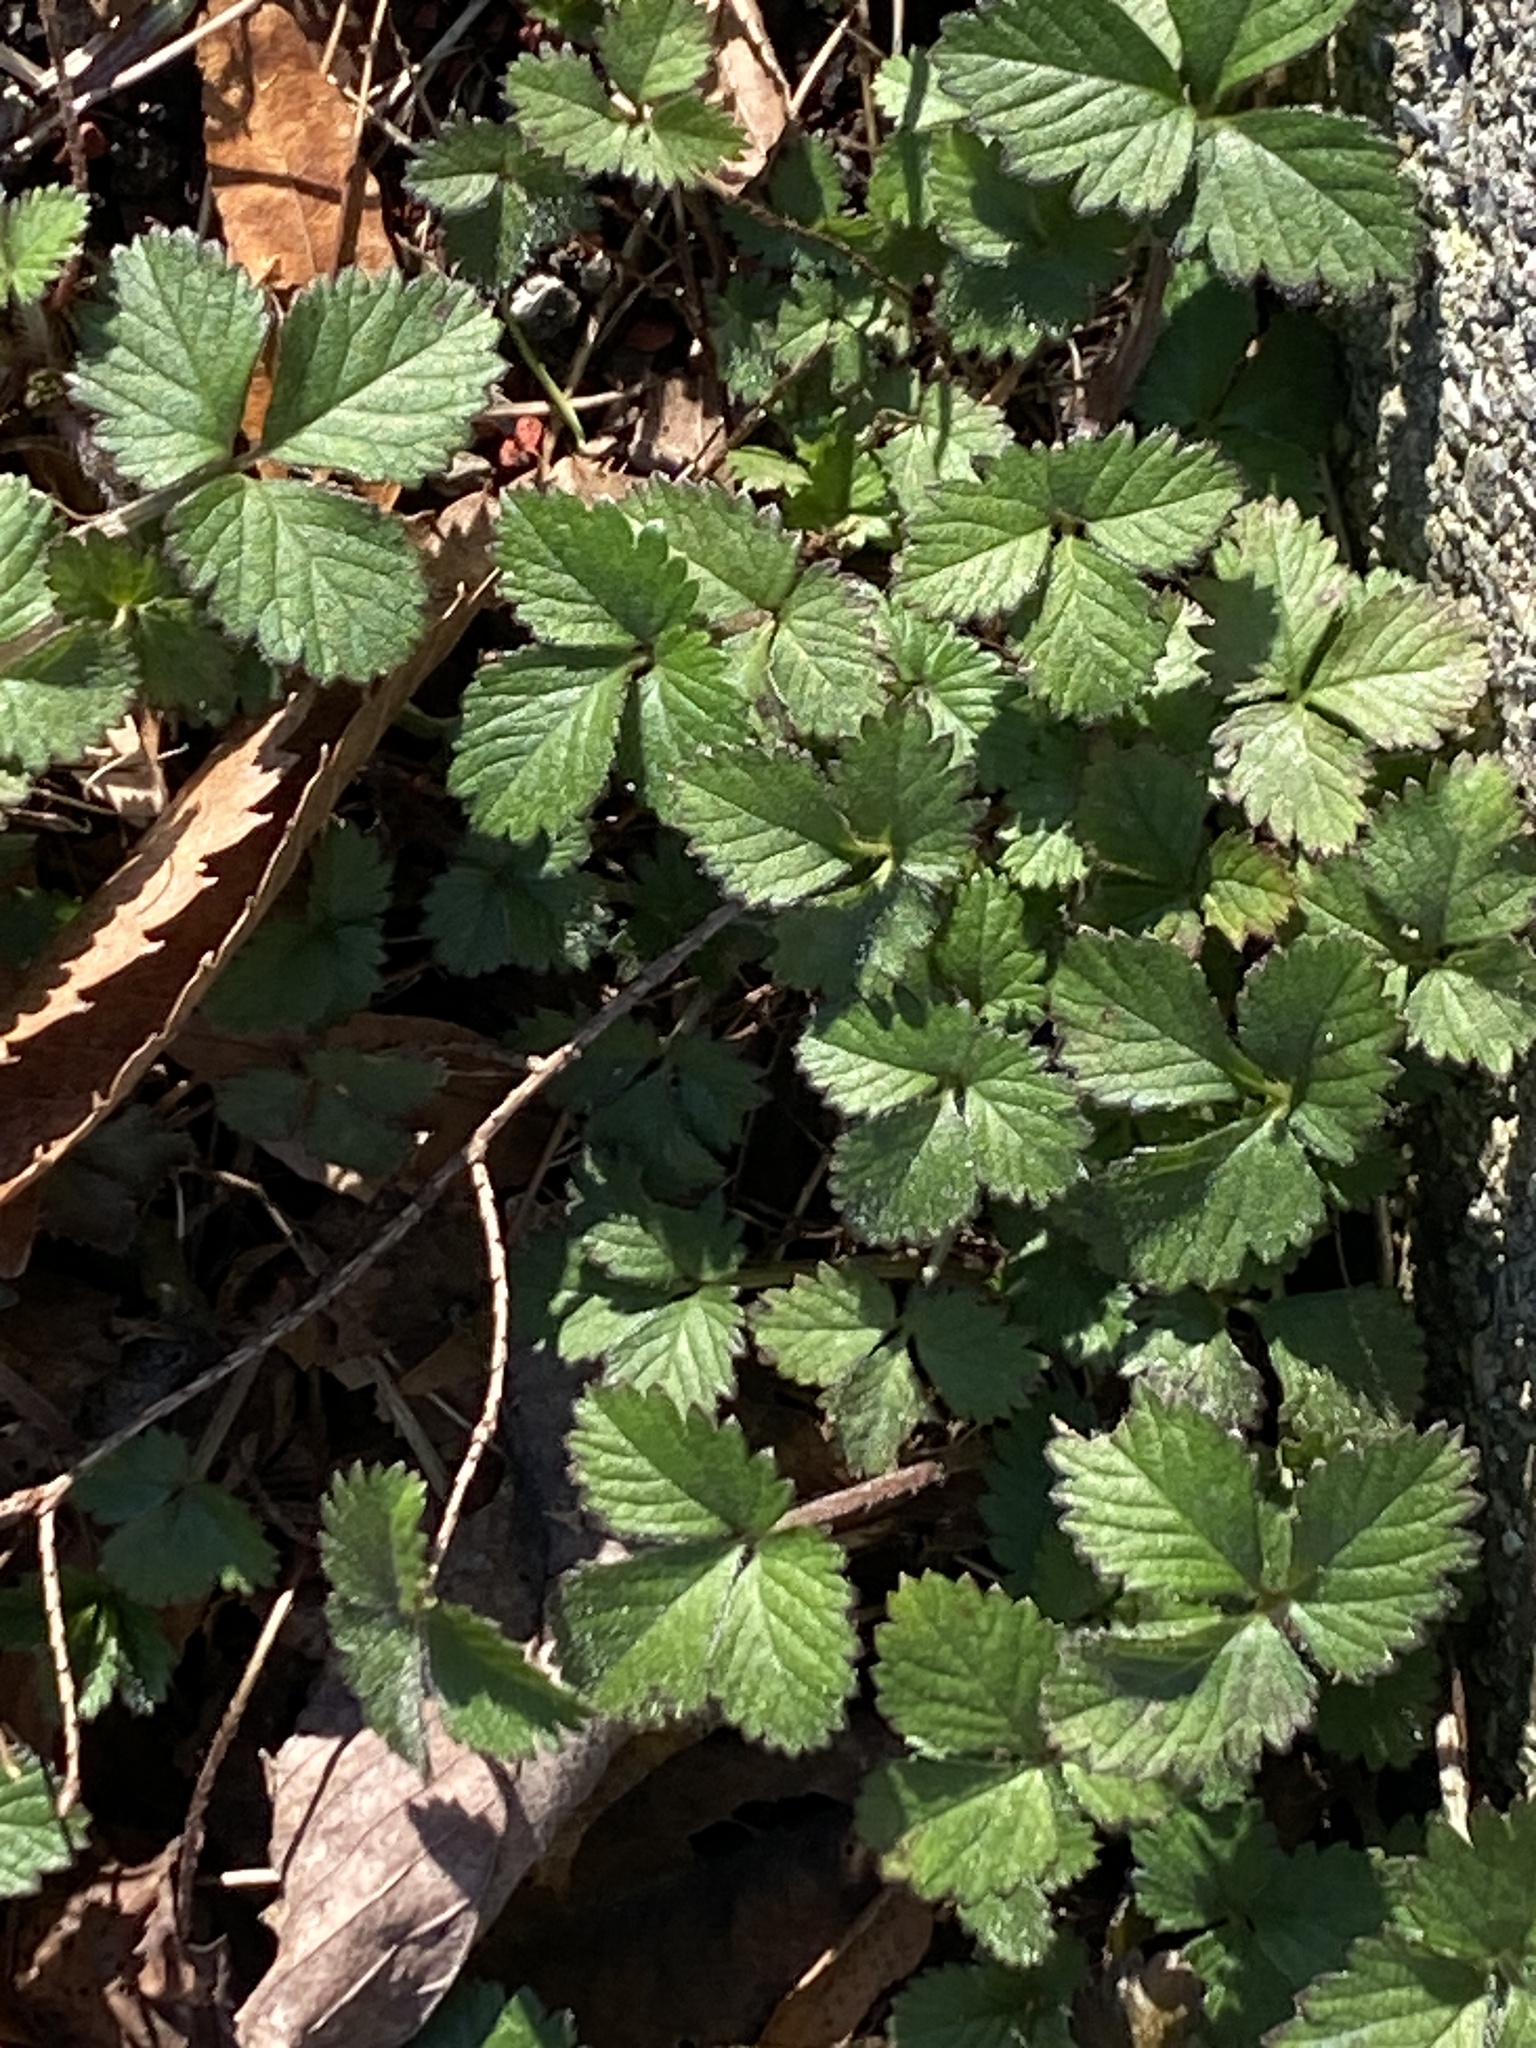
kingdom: Plantae
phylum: Tracheophyta
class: Magnoliopsida
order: Rosales
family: Rosaceae
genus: Potentilla
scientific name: Potentilla indica
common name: Yellow-flowered strawberry
